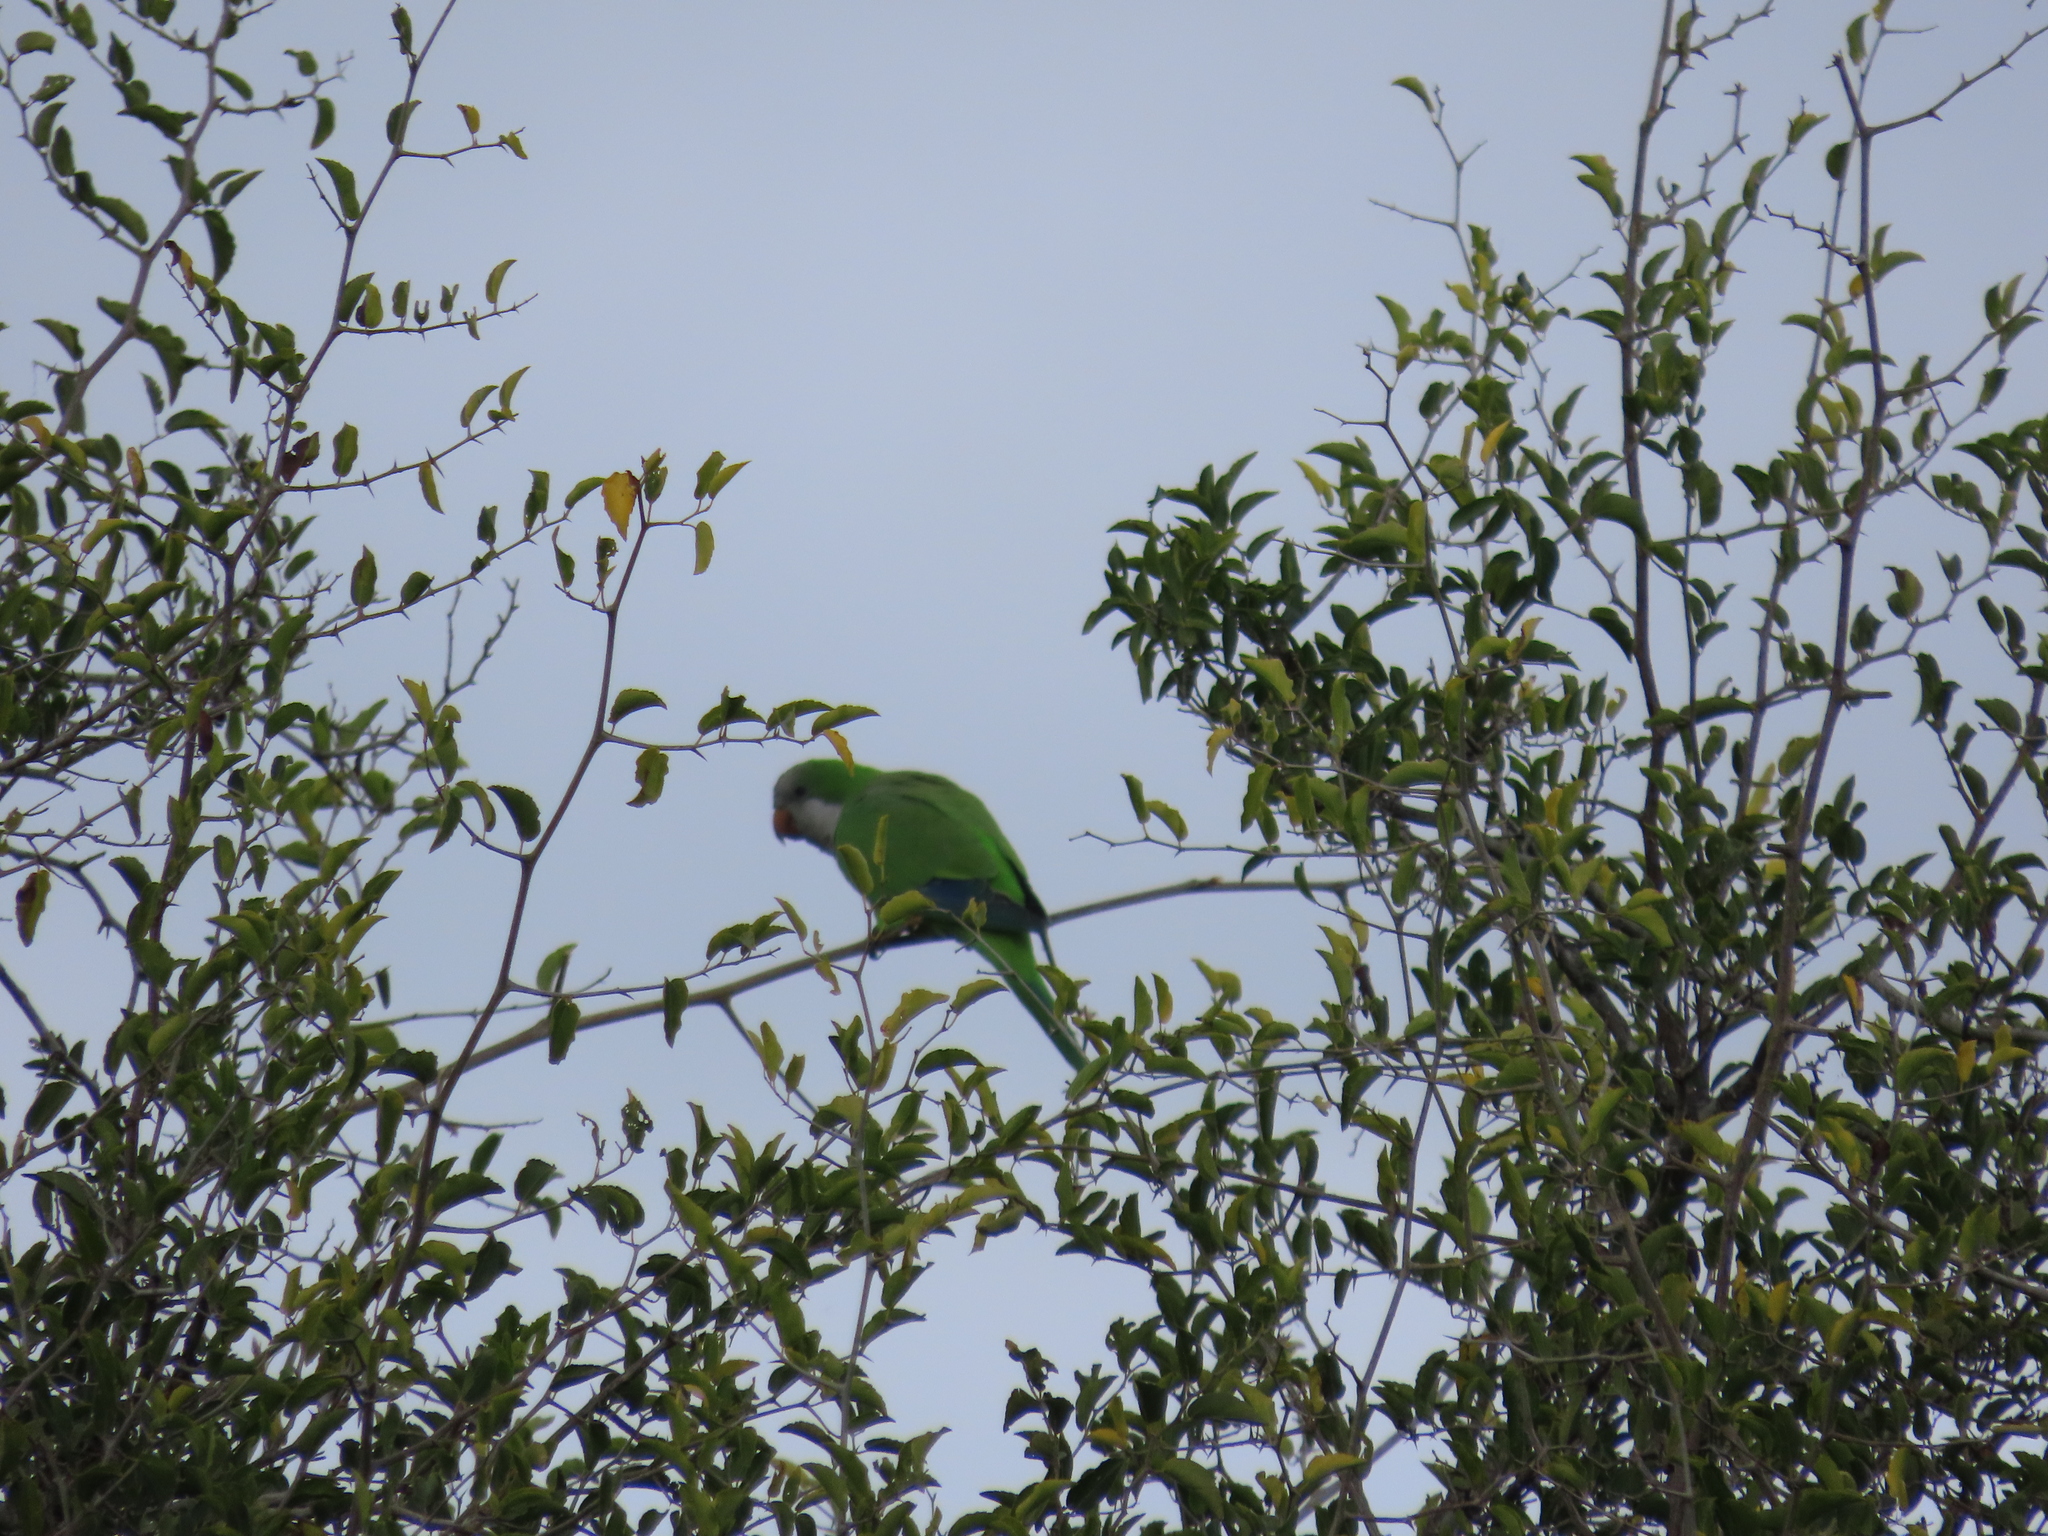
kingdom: Animalia
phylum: Chordata
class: Aves
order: Psittaciformes
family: Psittacidae
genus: Myiopsitta
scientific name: Myiopsitta monachus
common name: Monk parakeet
